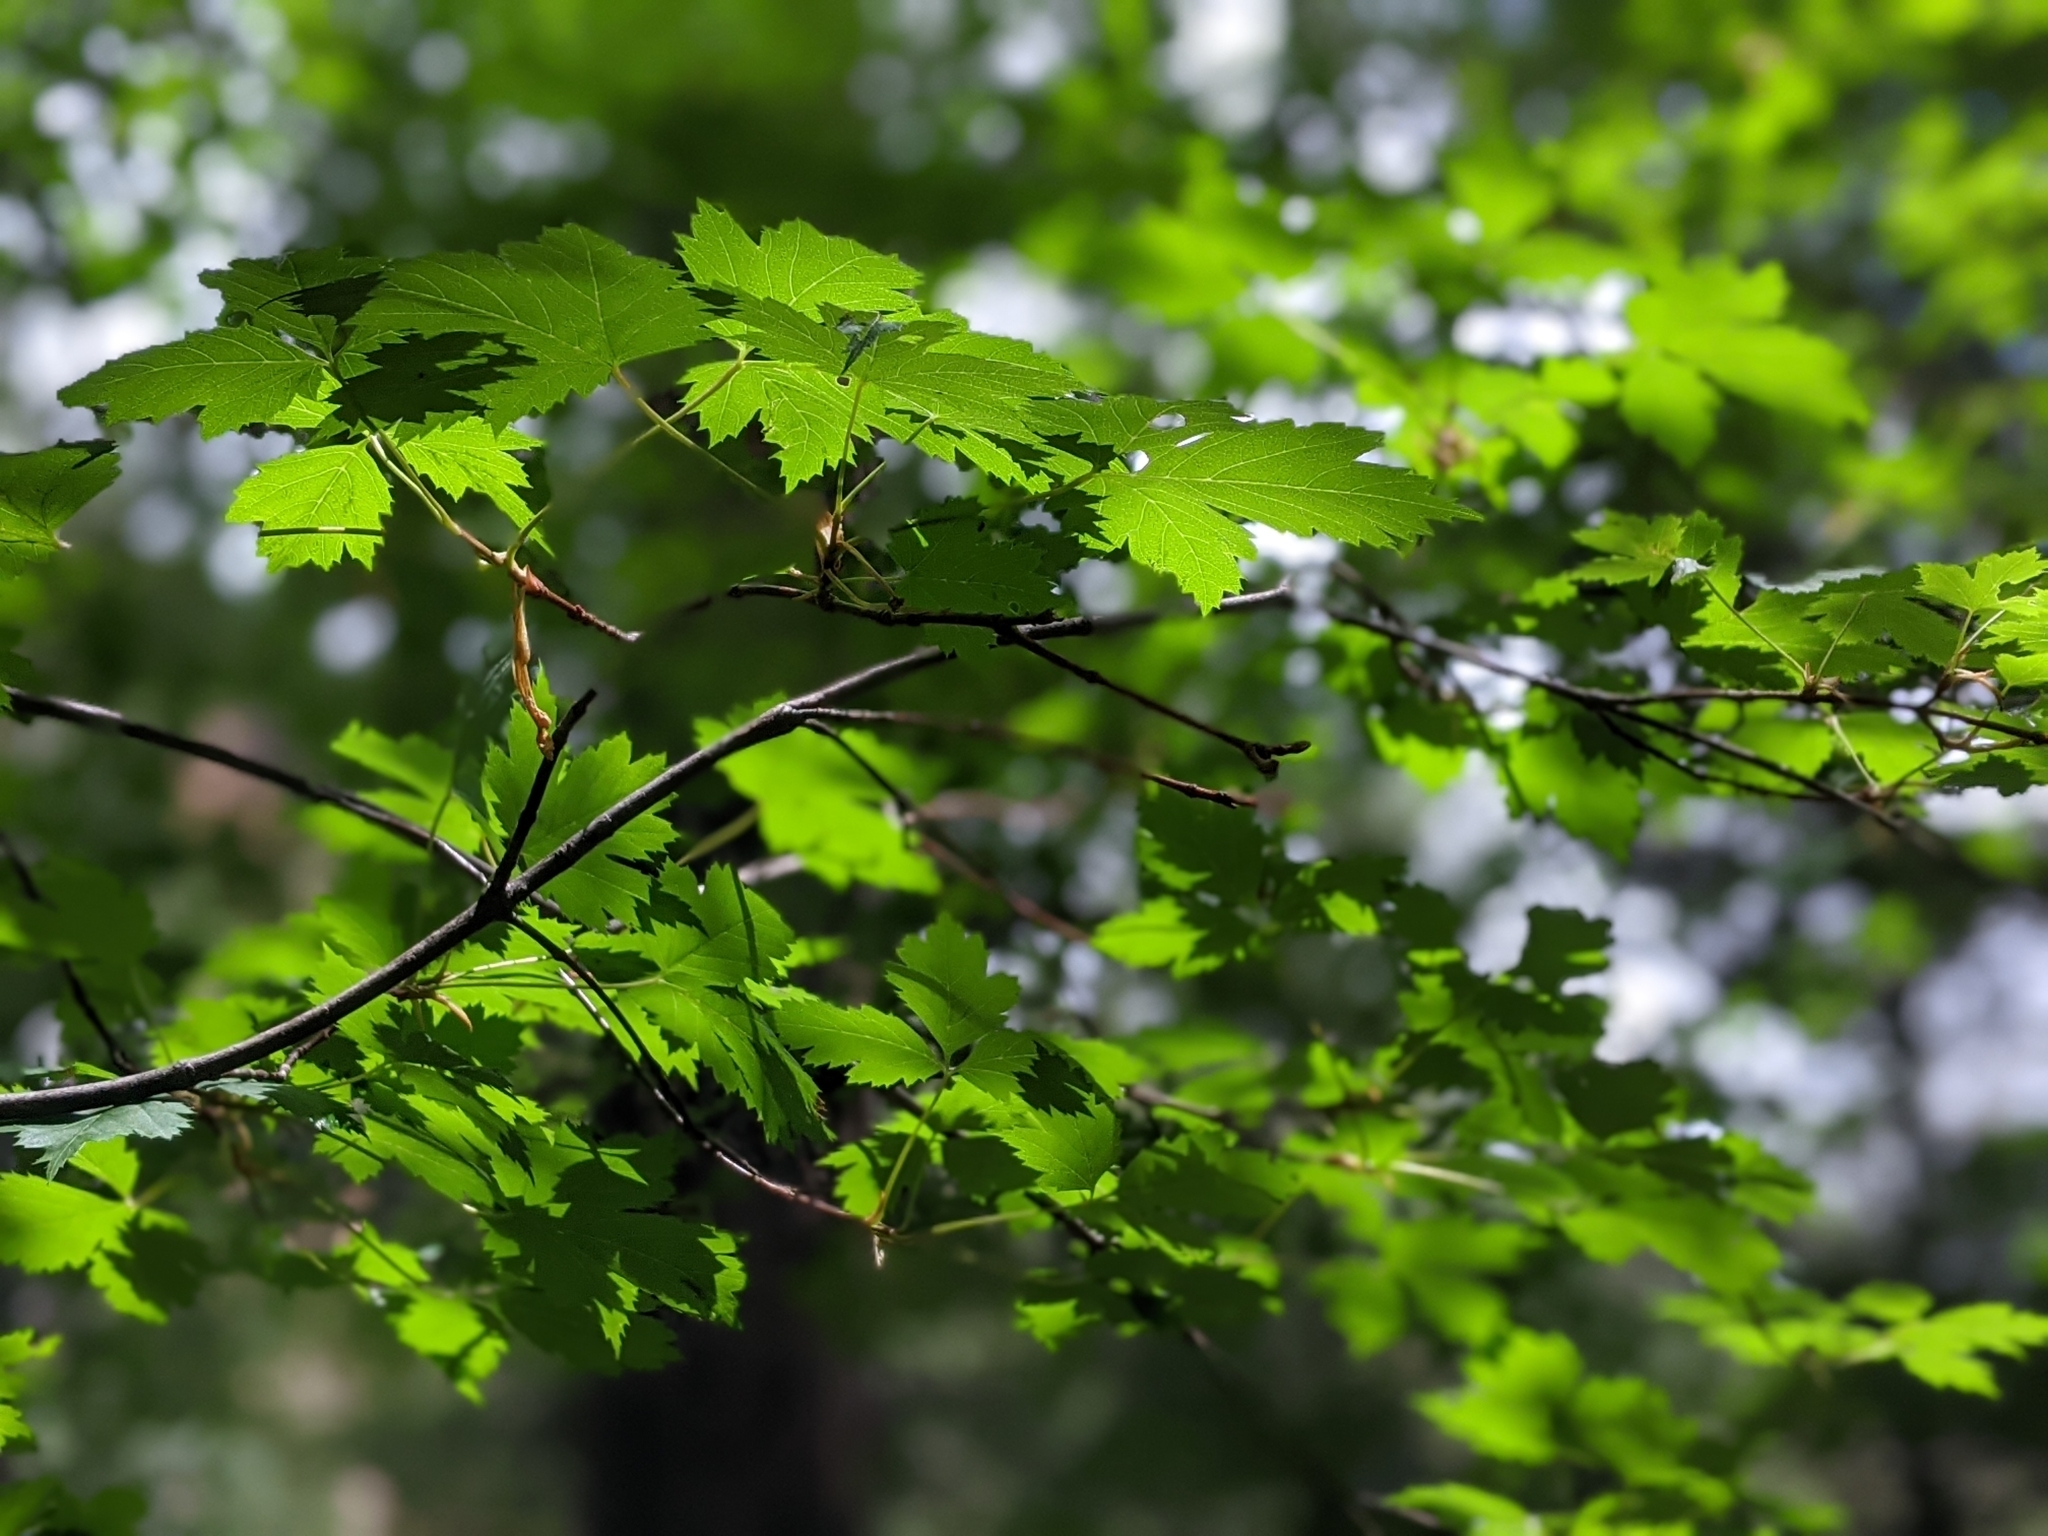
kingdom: Plantae
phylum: Tracheophyta
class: Magnoliopsida
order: Sapindales
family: Sapindaceae
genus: Acer
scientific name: Acer glabrum
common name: Rocky mountain maple
